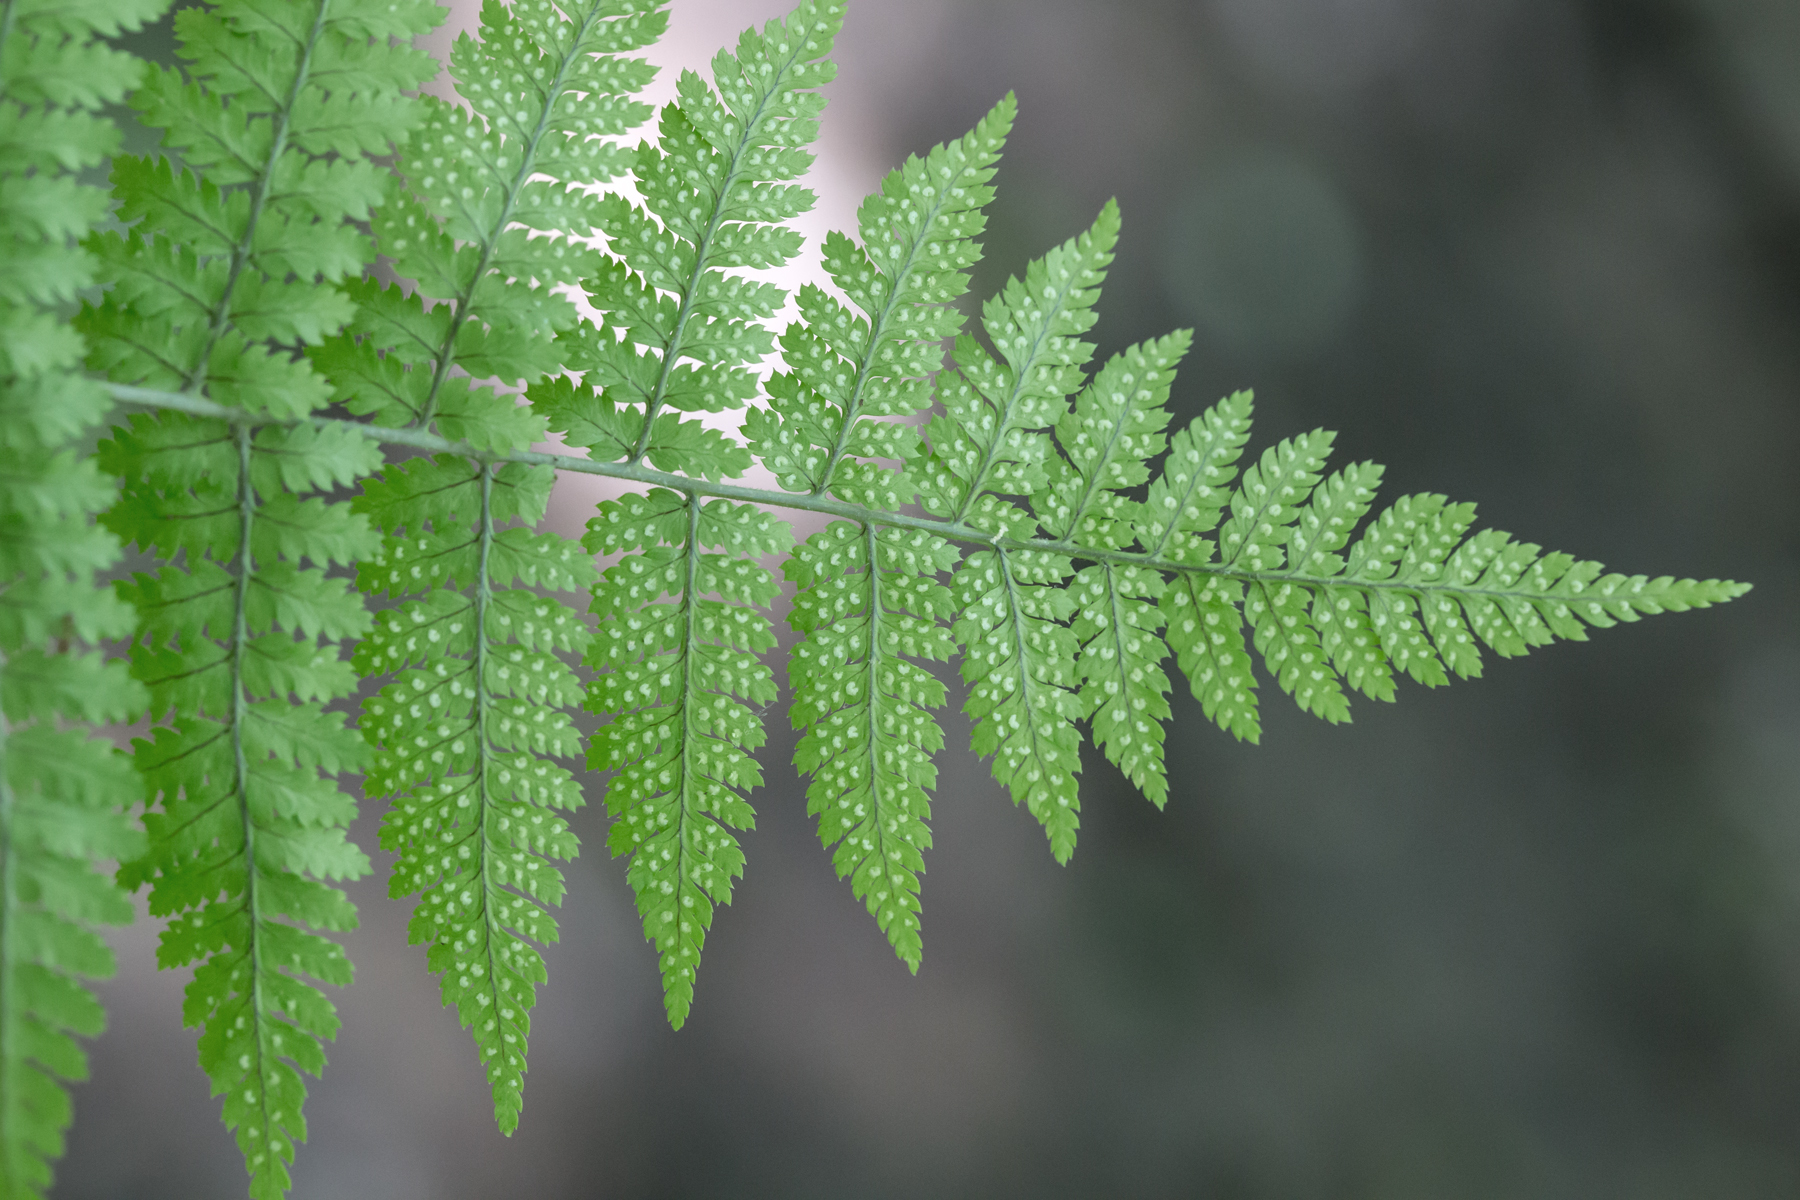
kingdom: Plantae
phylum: Tracheophyta
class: Polypodiopsida
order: Polypodiales
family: Dryopteridaceae
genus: Dryopteris
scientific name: Dryopteris intermedia
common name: Evergreen wood fern
